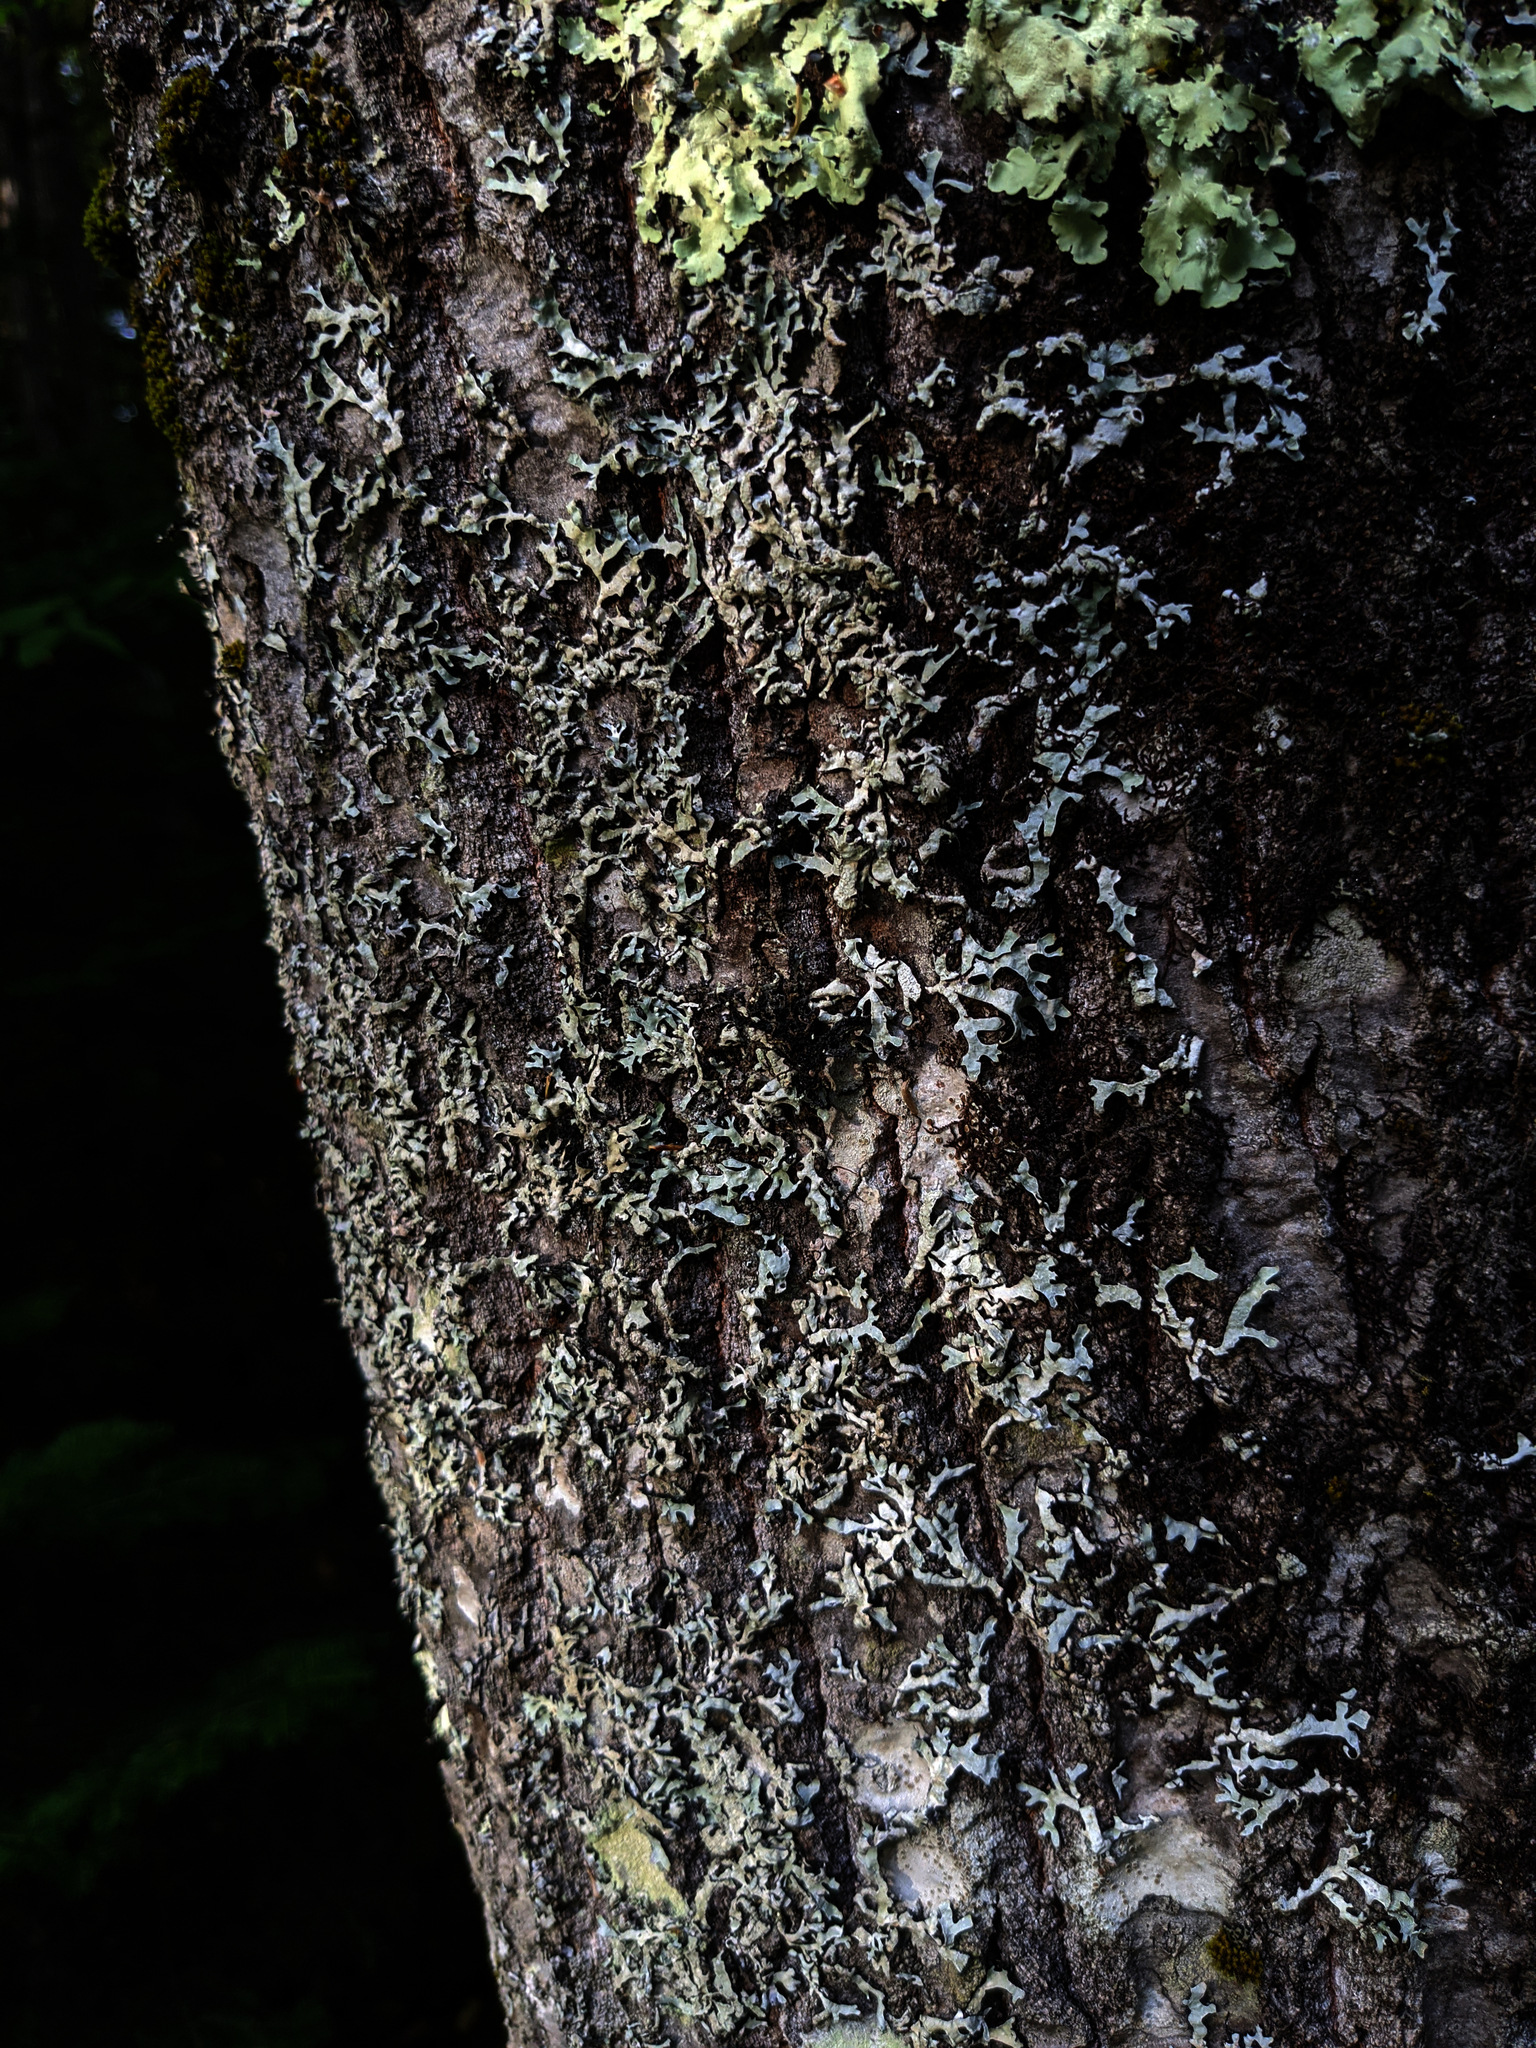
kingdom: Plantae
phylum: Marchantiophyta
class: Jungermanniopsida
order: Porellales
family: Frullaniaceae
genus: Frullania
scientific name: Frullania eboracensis
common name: New york scalewort
